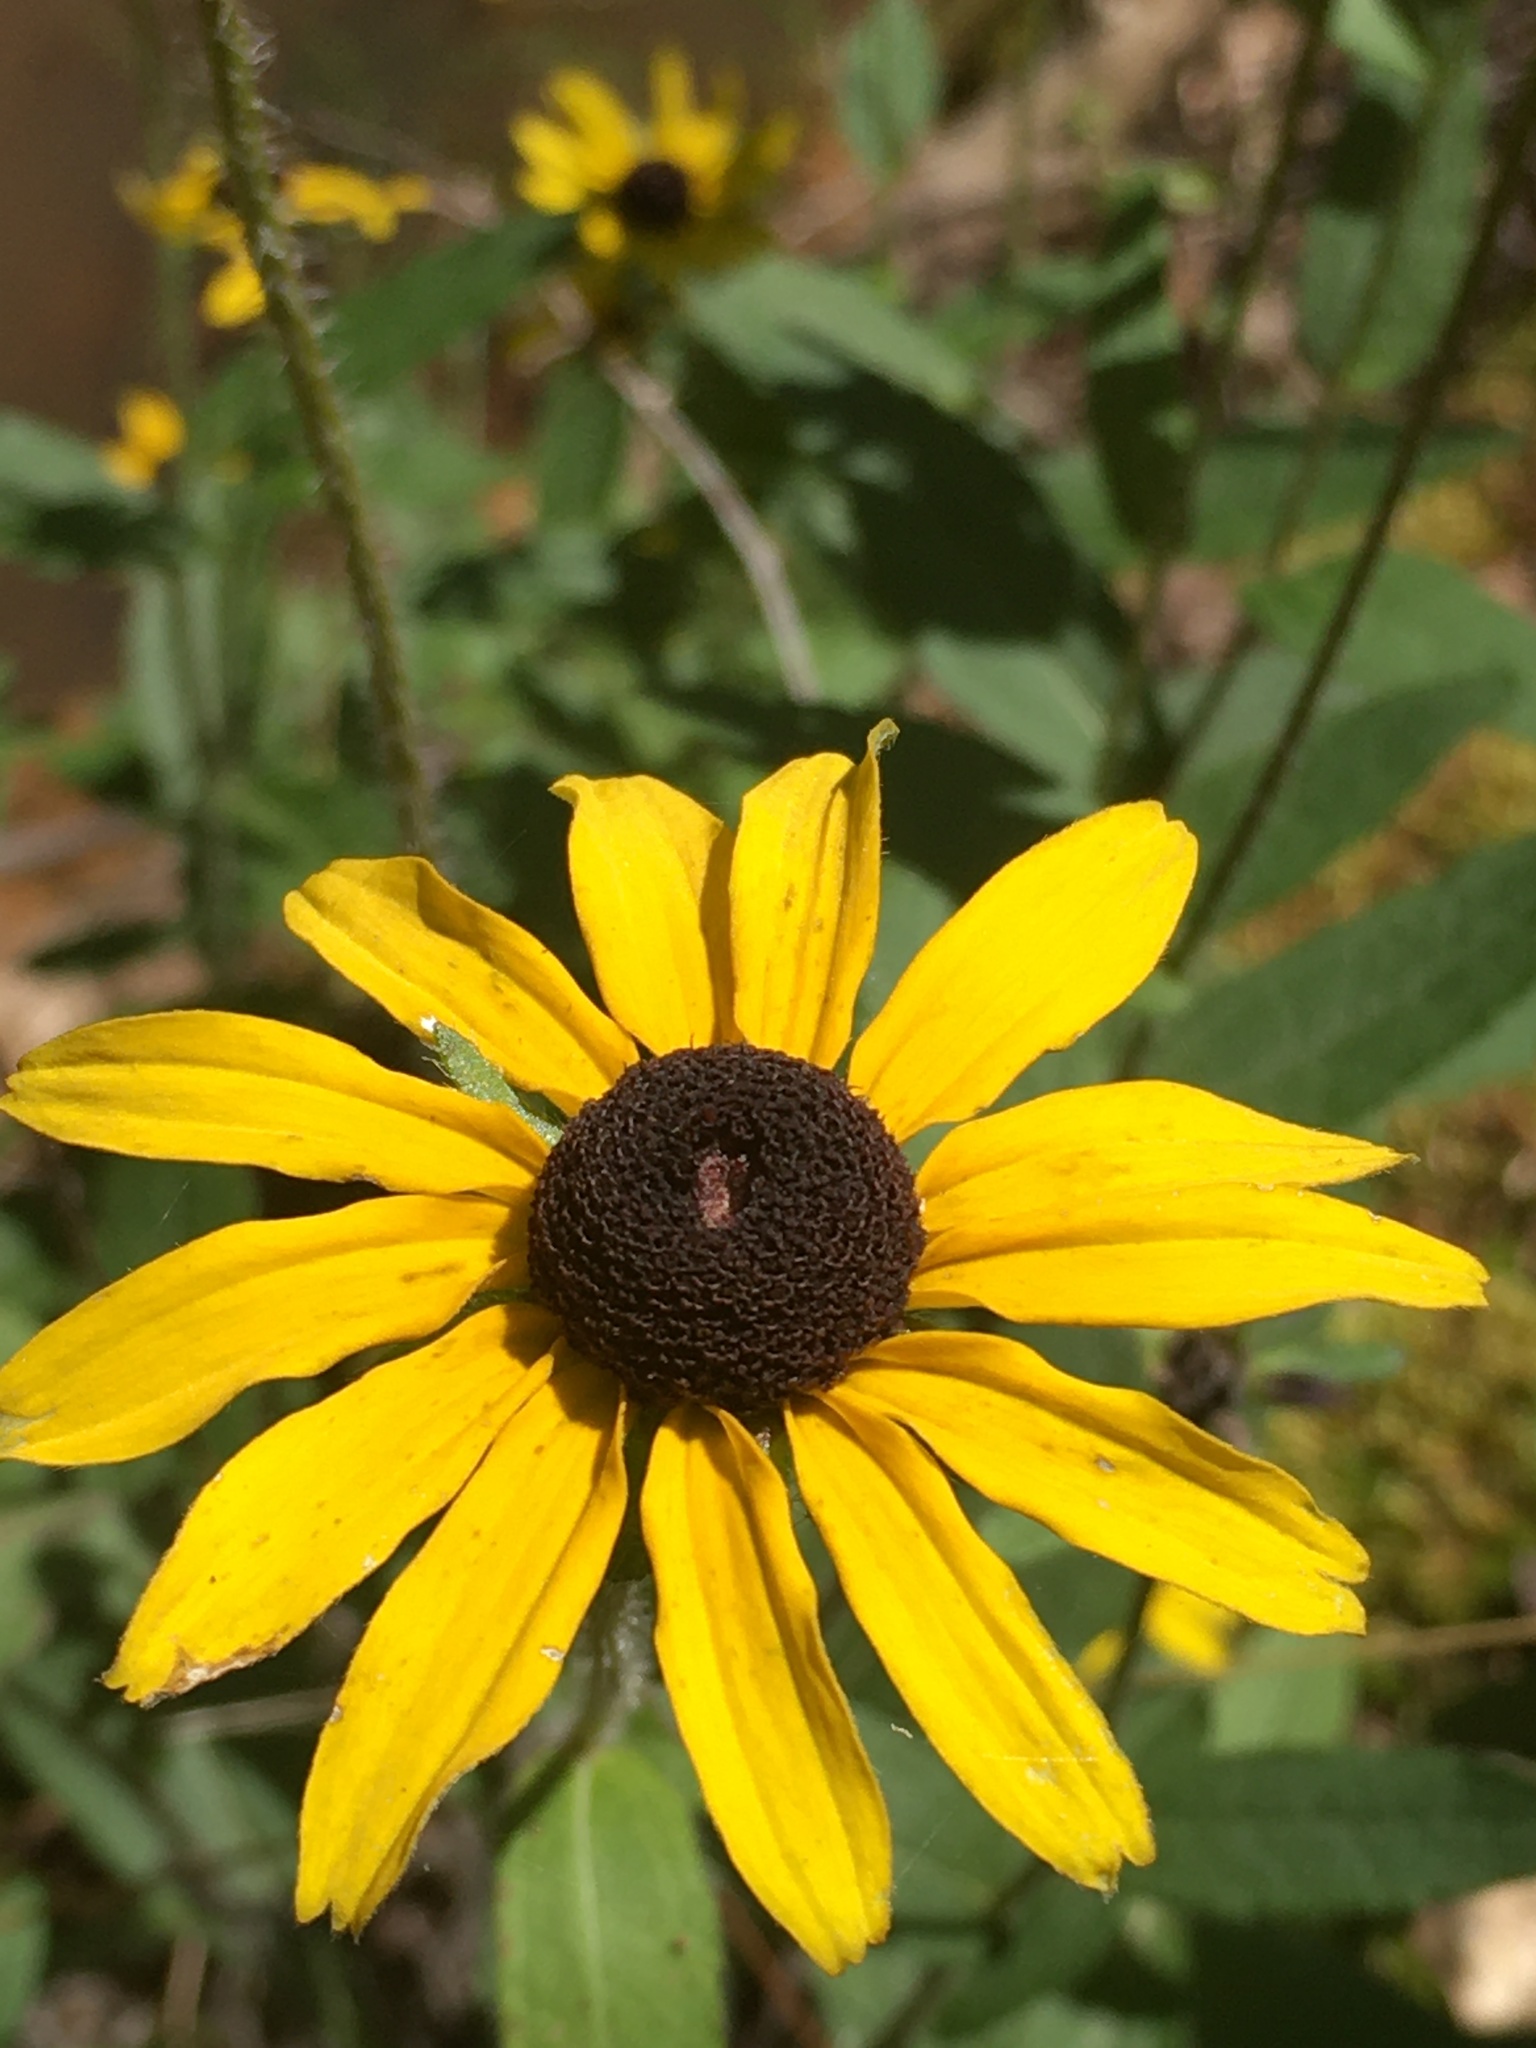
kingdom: Plantae
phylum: Tracheophyta
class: Magnoliopsida
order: Asterales
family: Asteraceae
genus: Rudbeckia
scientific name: Rudbeckia hirta
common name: Black-eyed-susan
